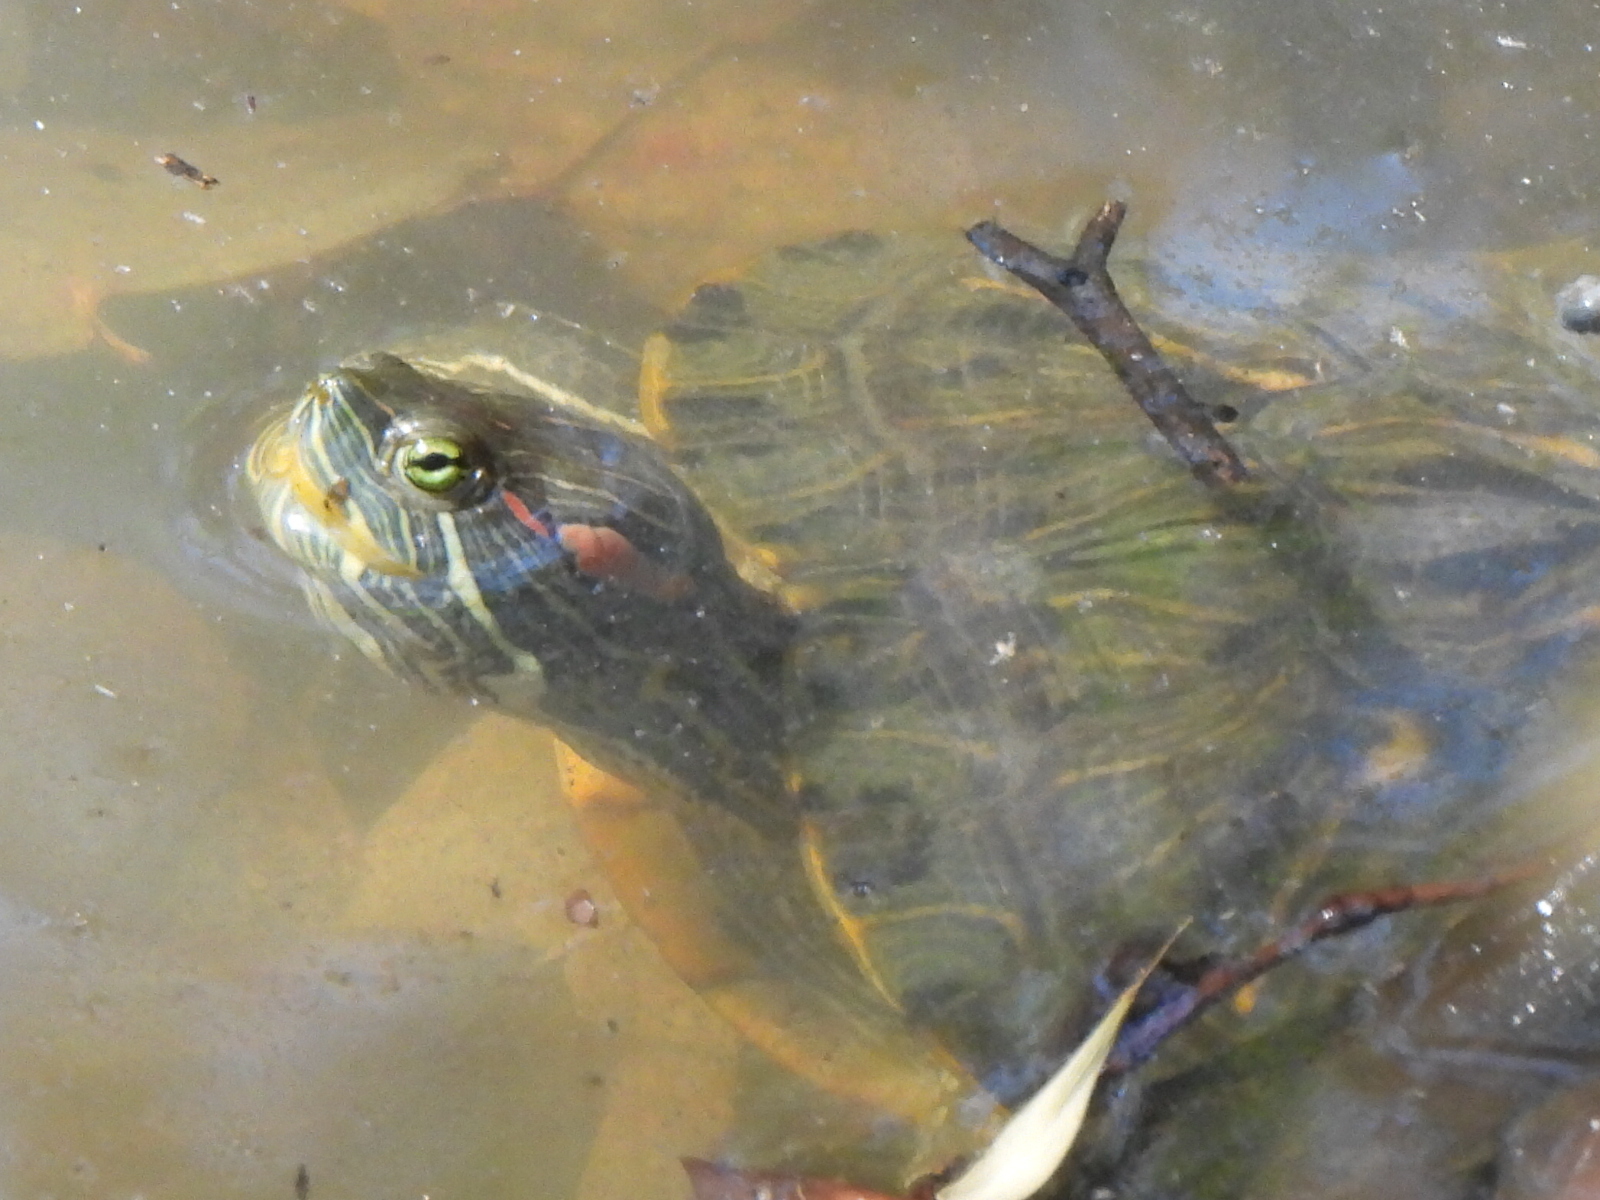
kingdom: Animalia
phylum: Chordata
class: Testudines
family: Emydidae
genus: Trachemys
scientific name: Trachemys scripta
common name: Slider
